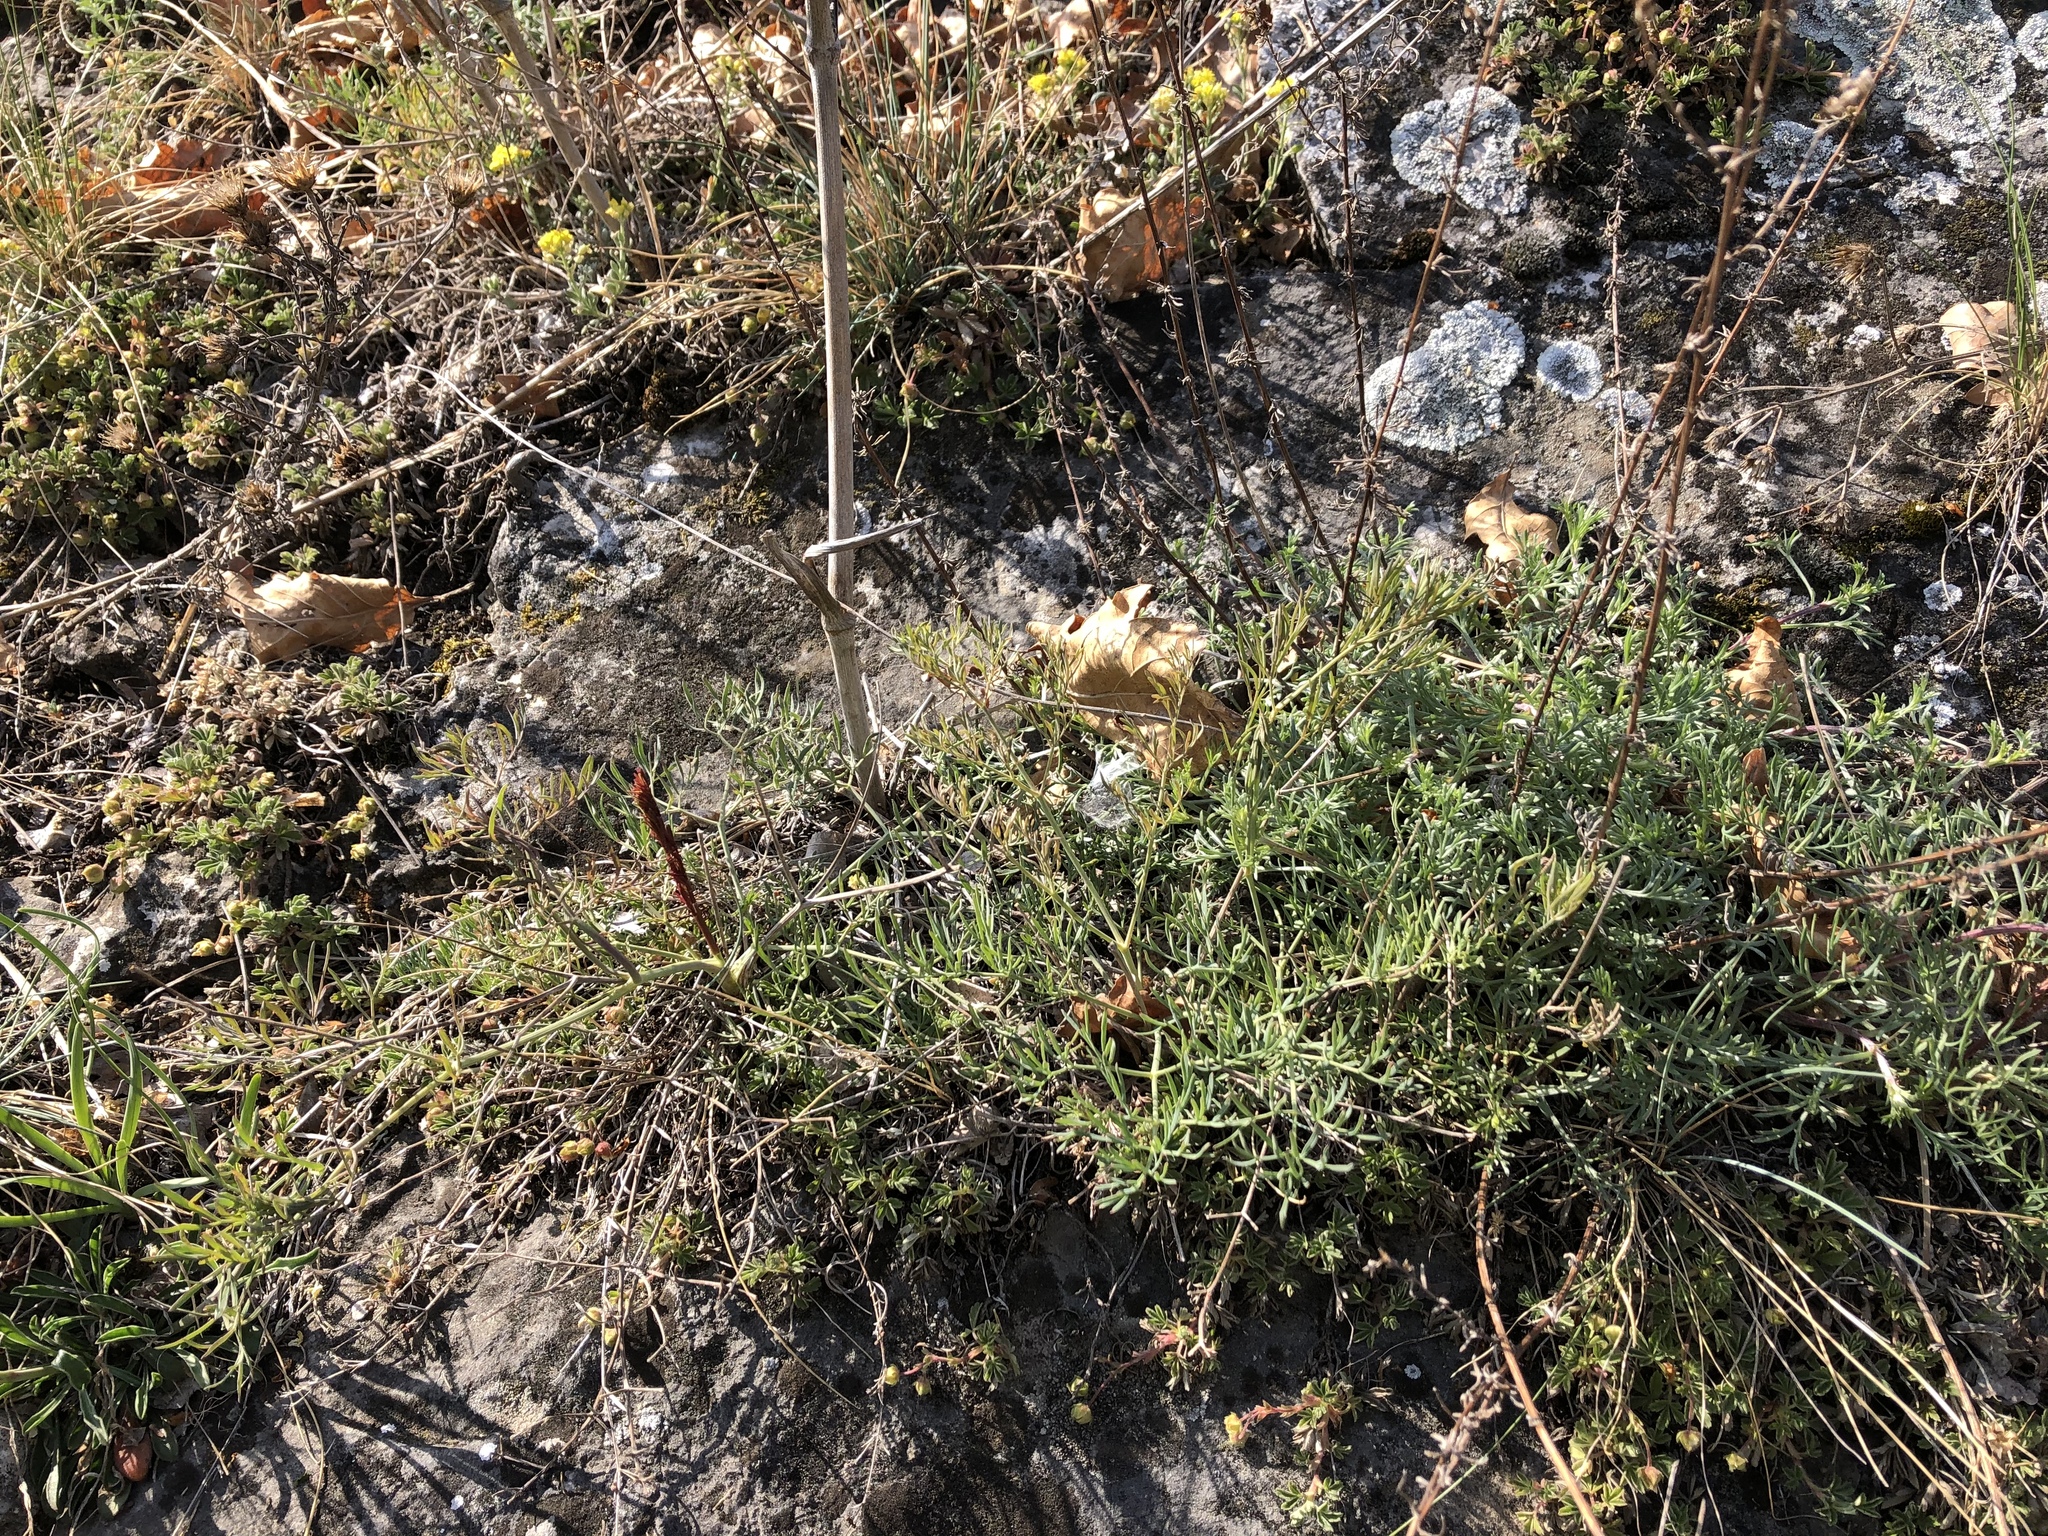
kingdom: Plantae
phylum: Tracheophyta
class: Magnoliopsida
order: Apiales
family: Apiaceae
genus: Seseli
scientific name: Seseli osseum
